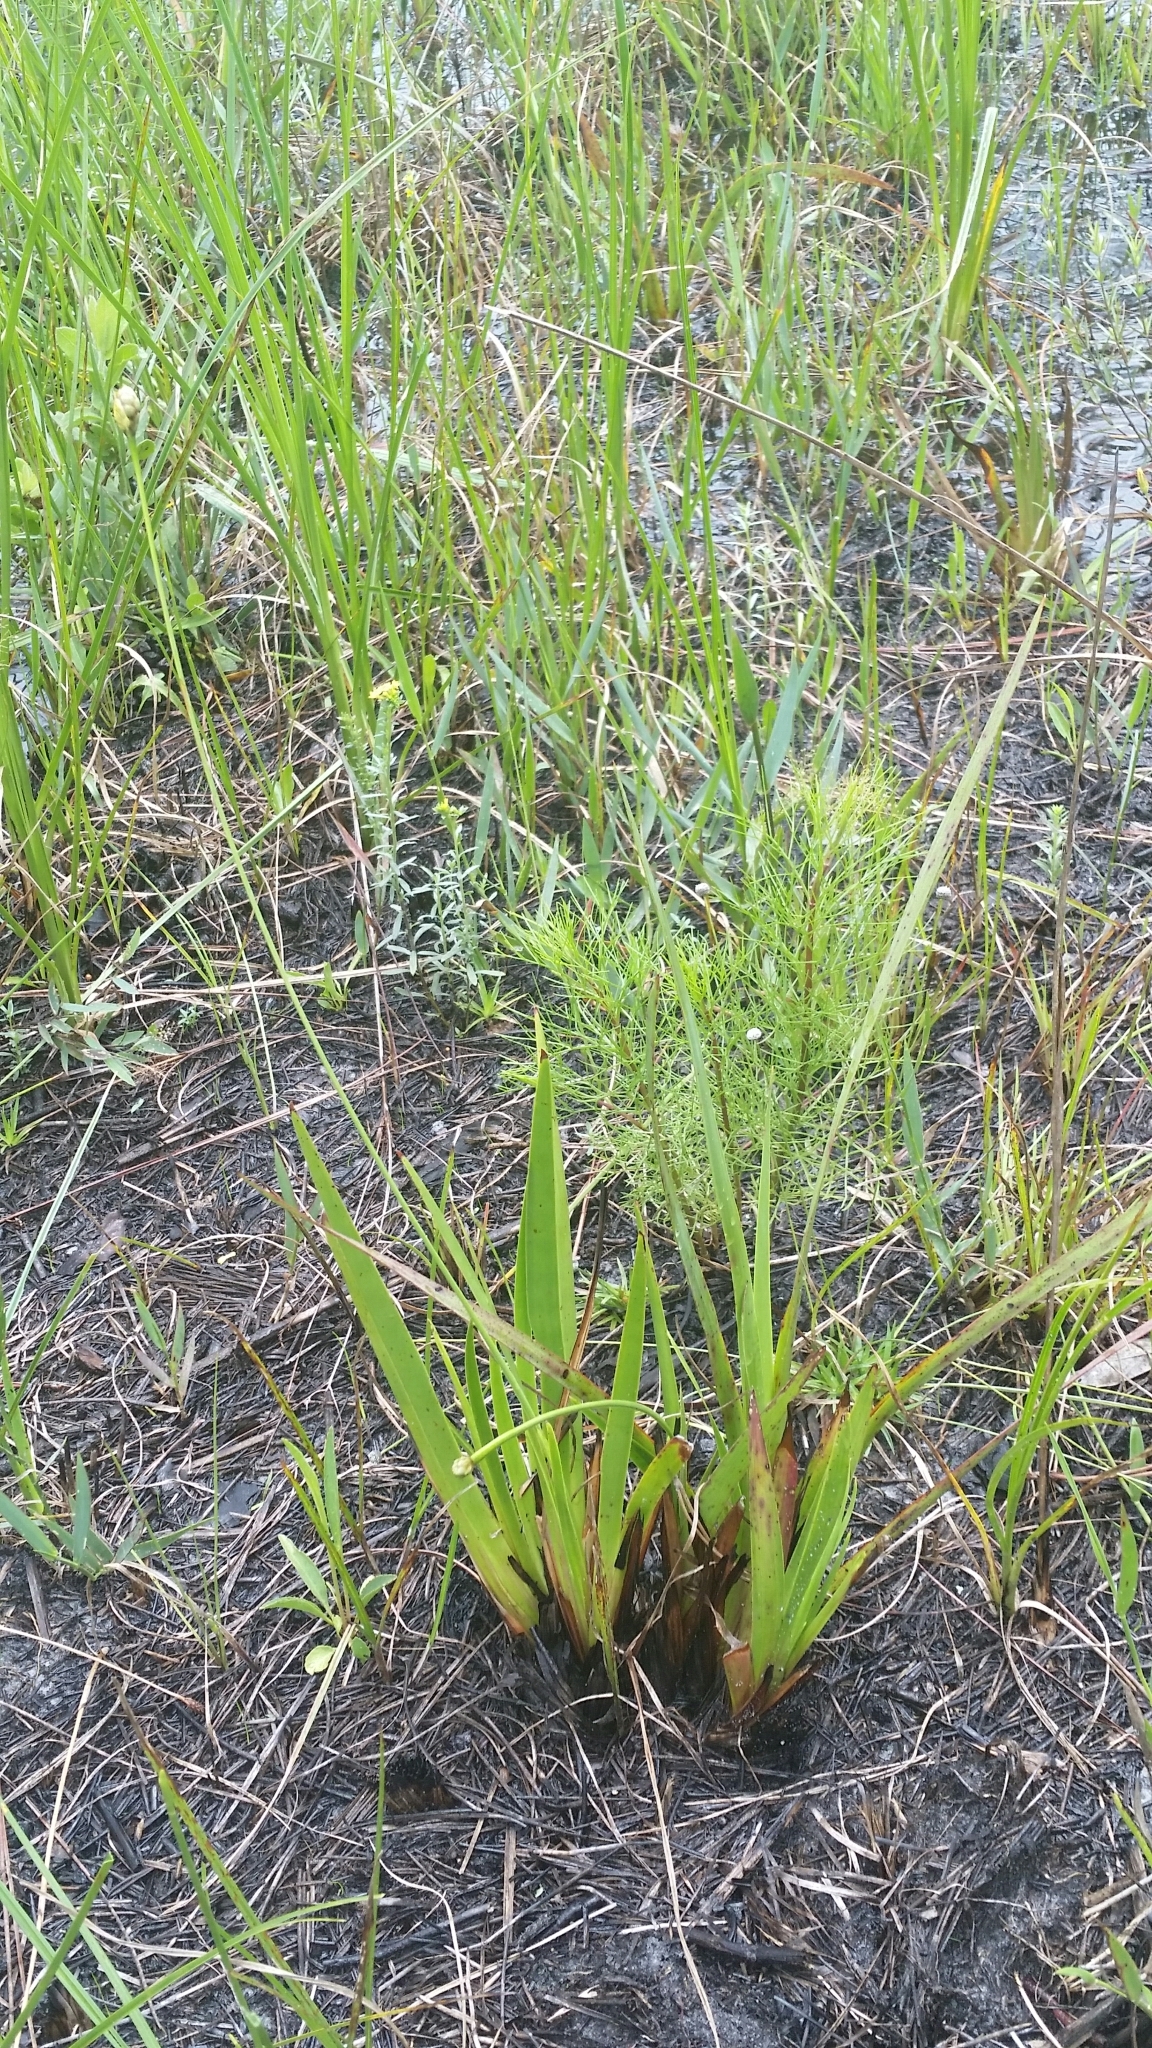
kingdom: Plantae
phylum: Tracheophyta
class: Liliopsida
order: Poales
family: Xyridaceae
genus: Xyris
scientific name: Xyris ambigua
